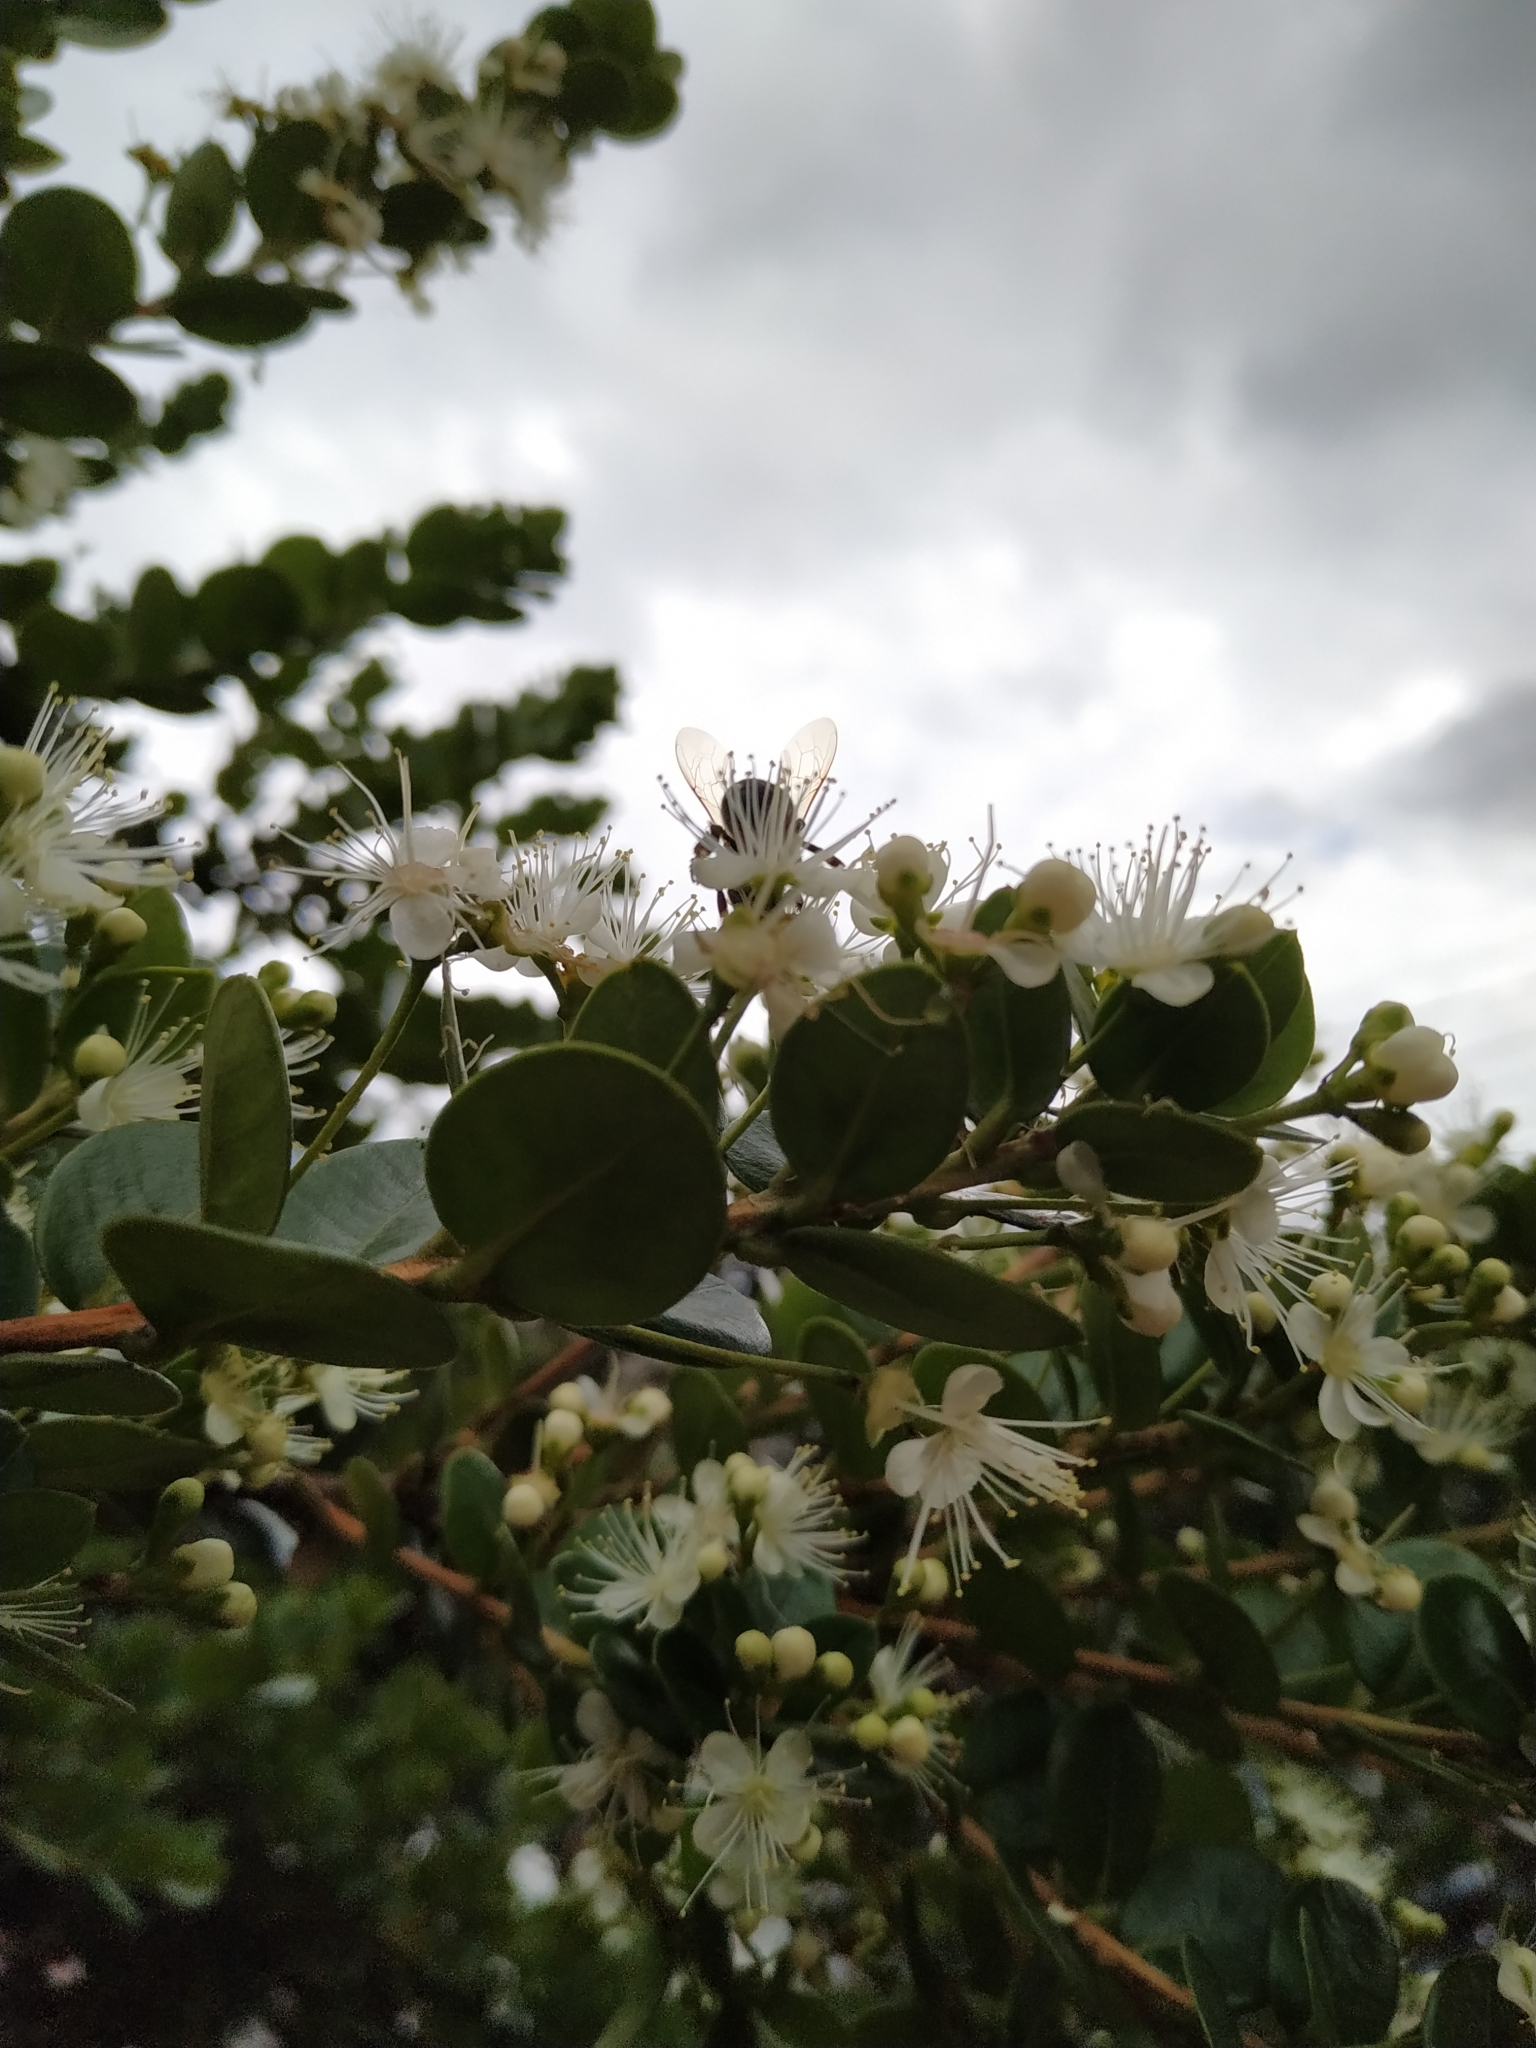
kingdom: Animalia
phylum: Arthropoda
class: Insecta
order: Hymenoptera
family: Apidae
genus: Apis
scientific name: Apis mellifera
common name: Honey bee
